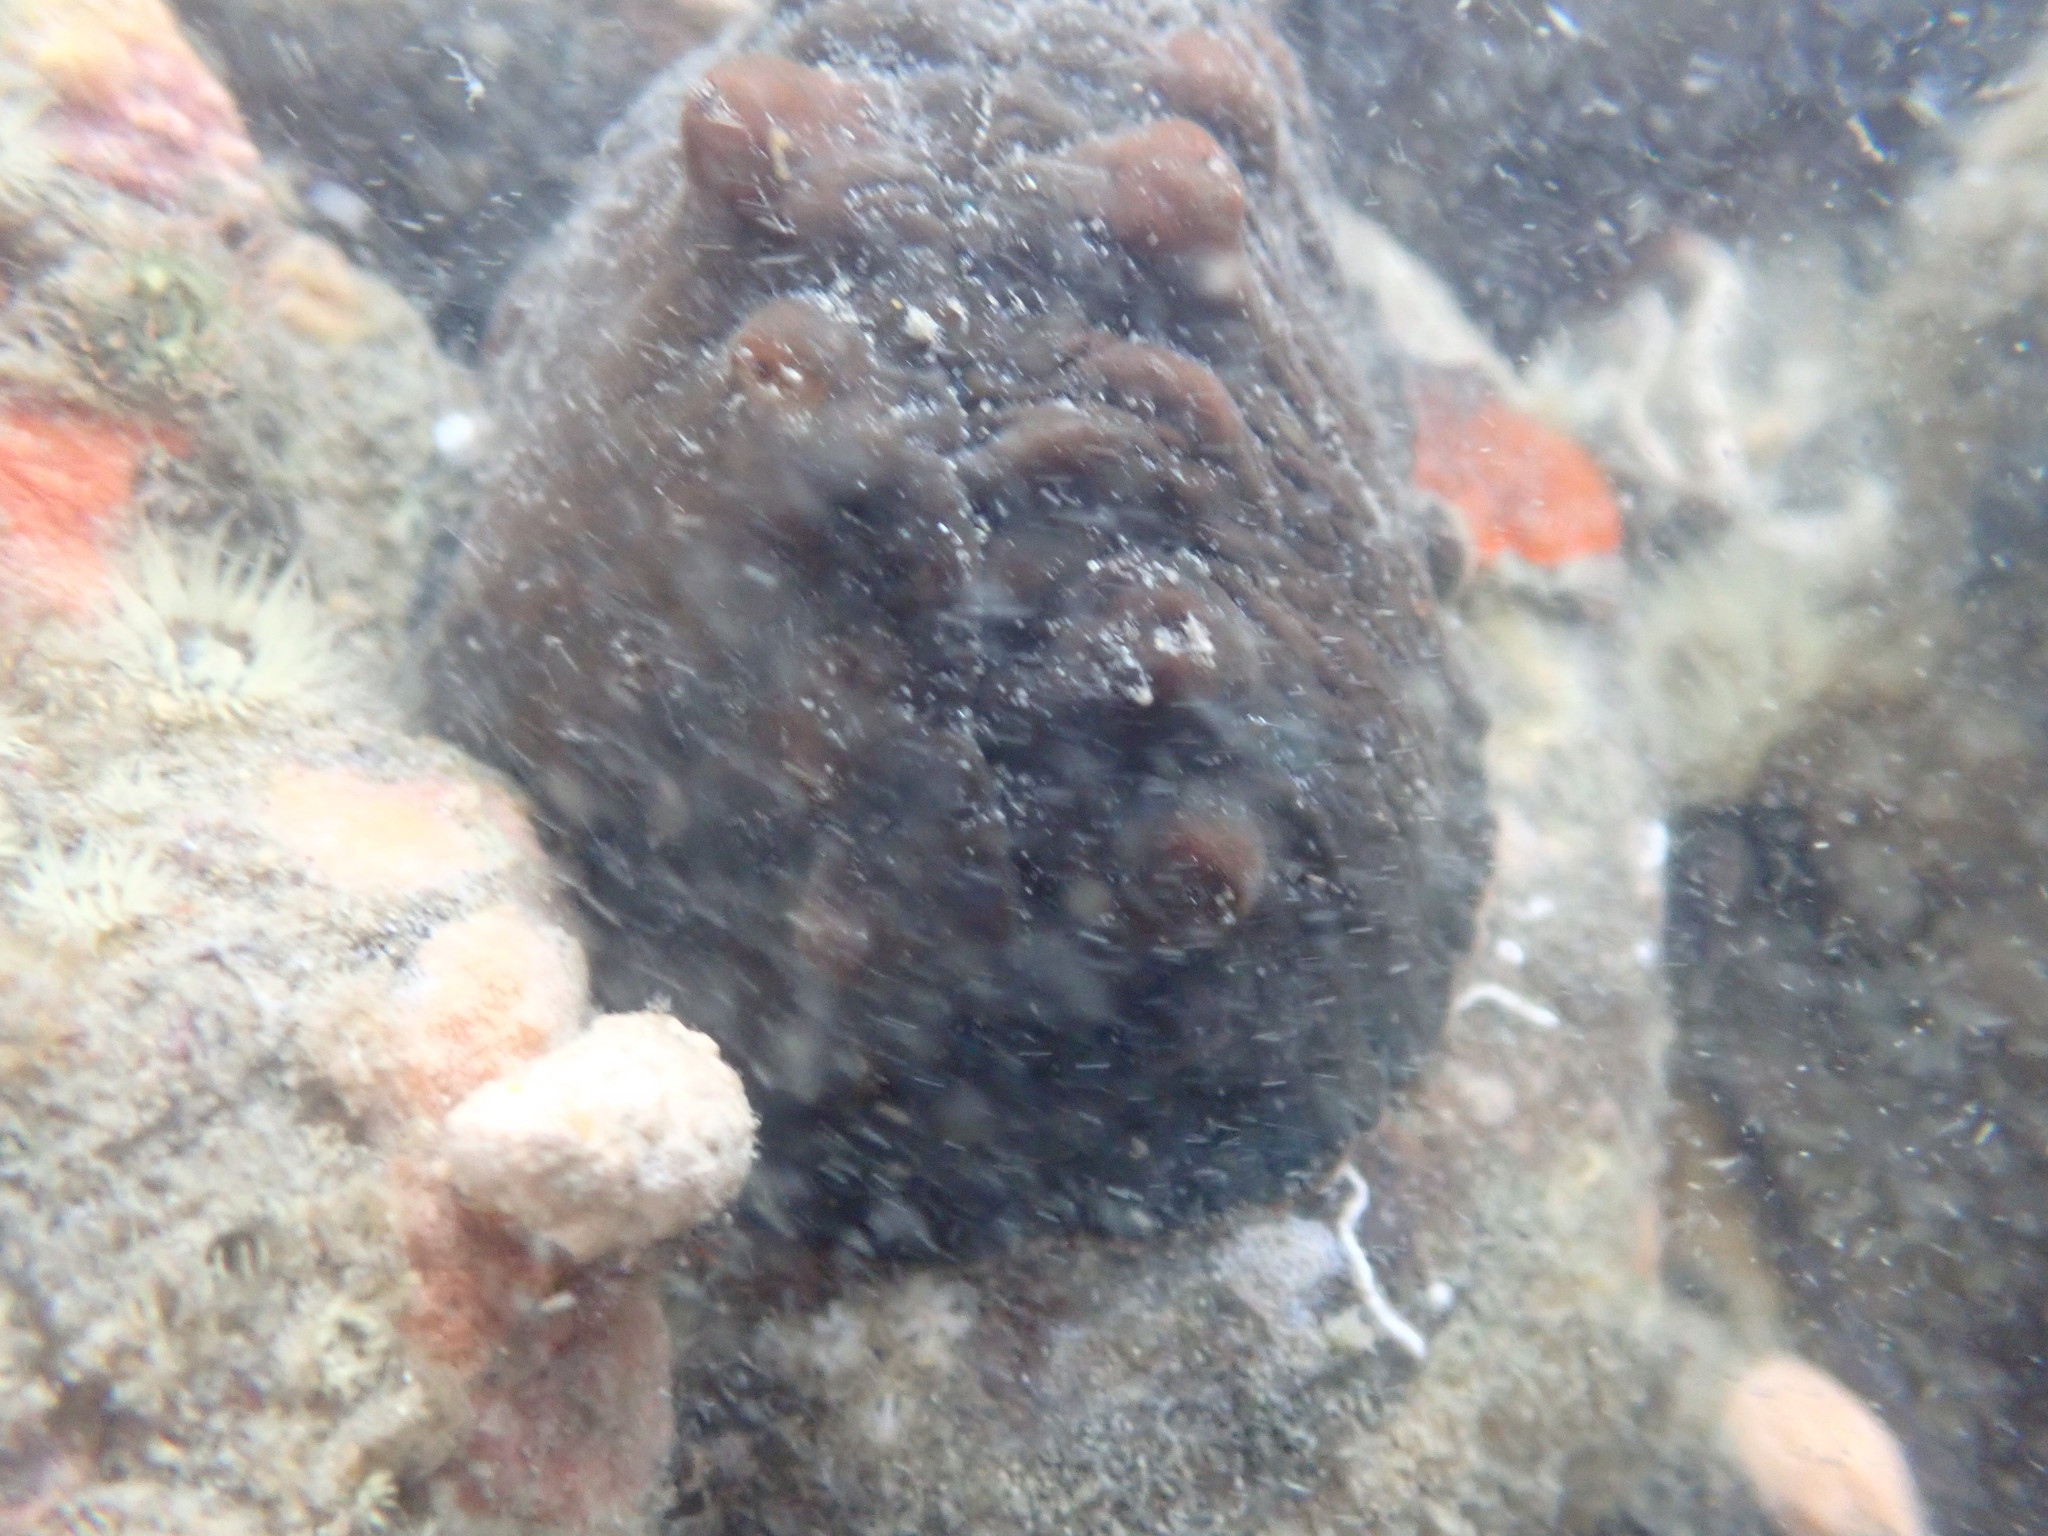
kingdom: Animalia
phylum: Mollusca
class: Polyplacophora
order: Chitonida
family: Acanthochitonidae
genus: Cryptoconchus
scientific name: Cryptoconchus porosus
